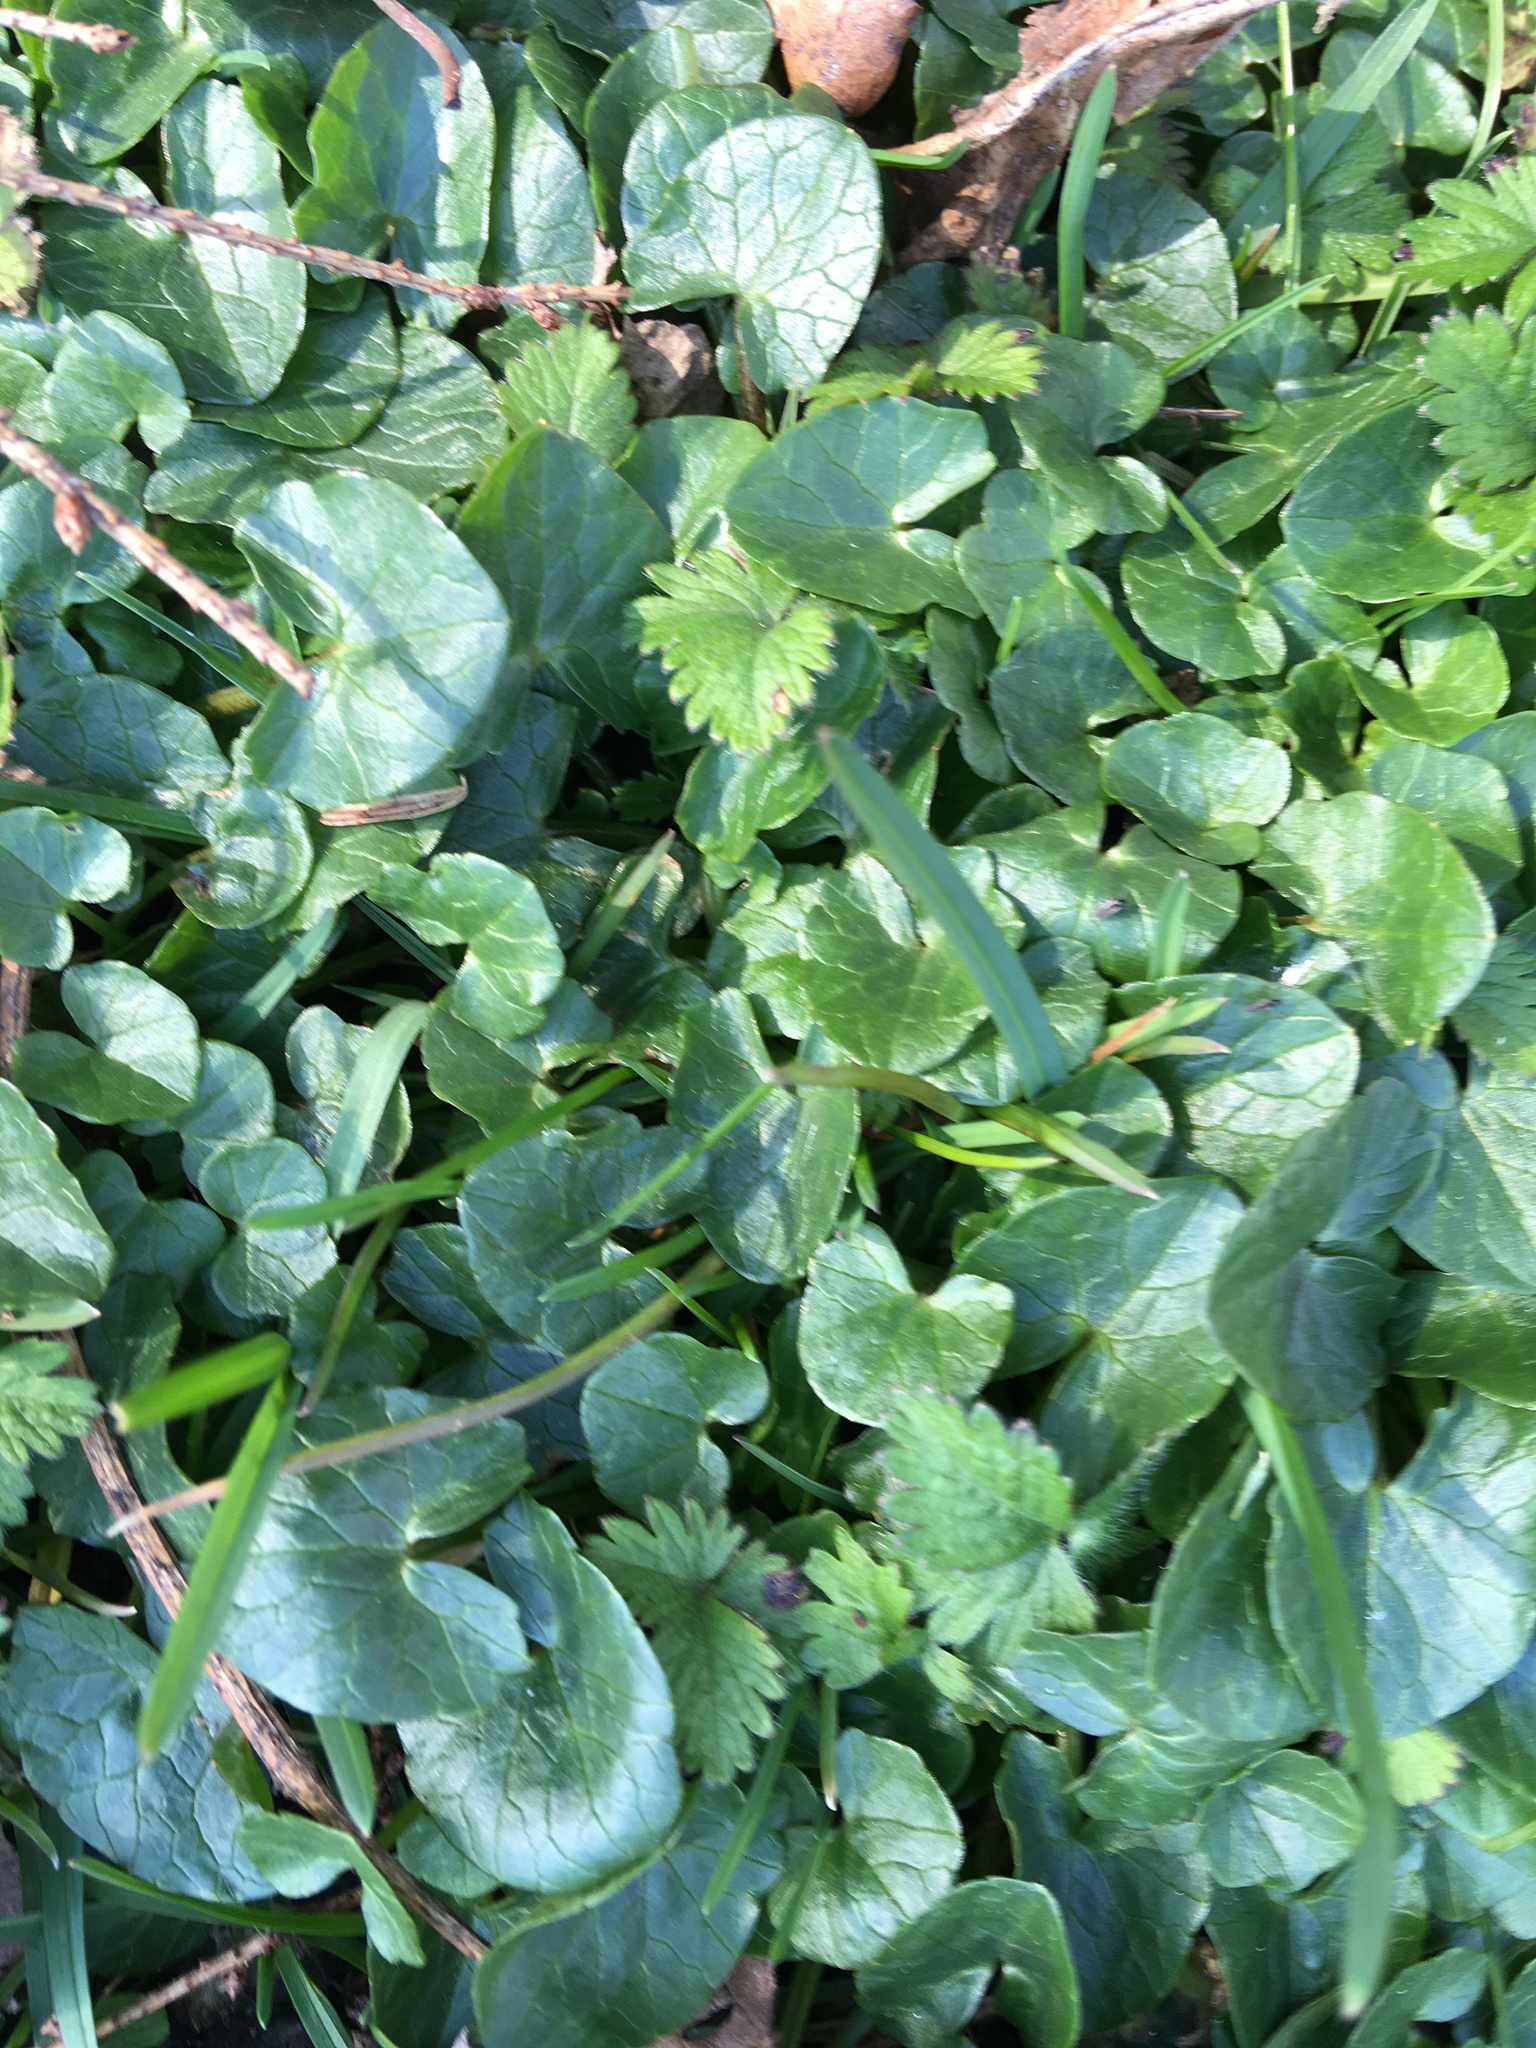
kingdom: Plantae
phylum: Tracheophyta
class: Magnoliopsida
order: Ranunculales
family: Ranunculaceae
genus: Ficaria
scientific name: Ficaria verna
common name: Lesser celandine
